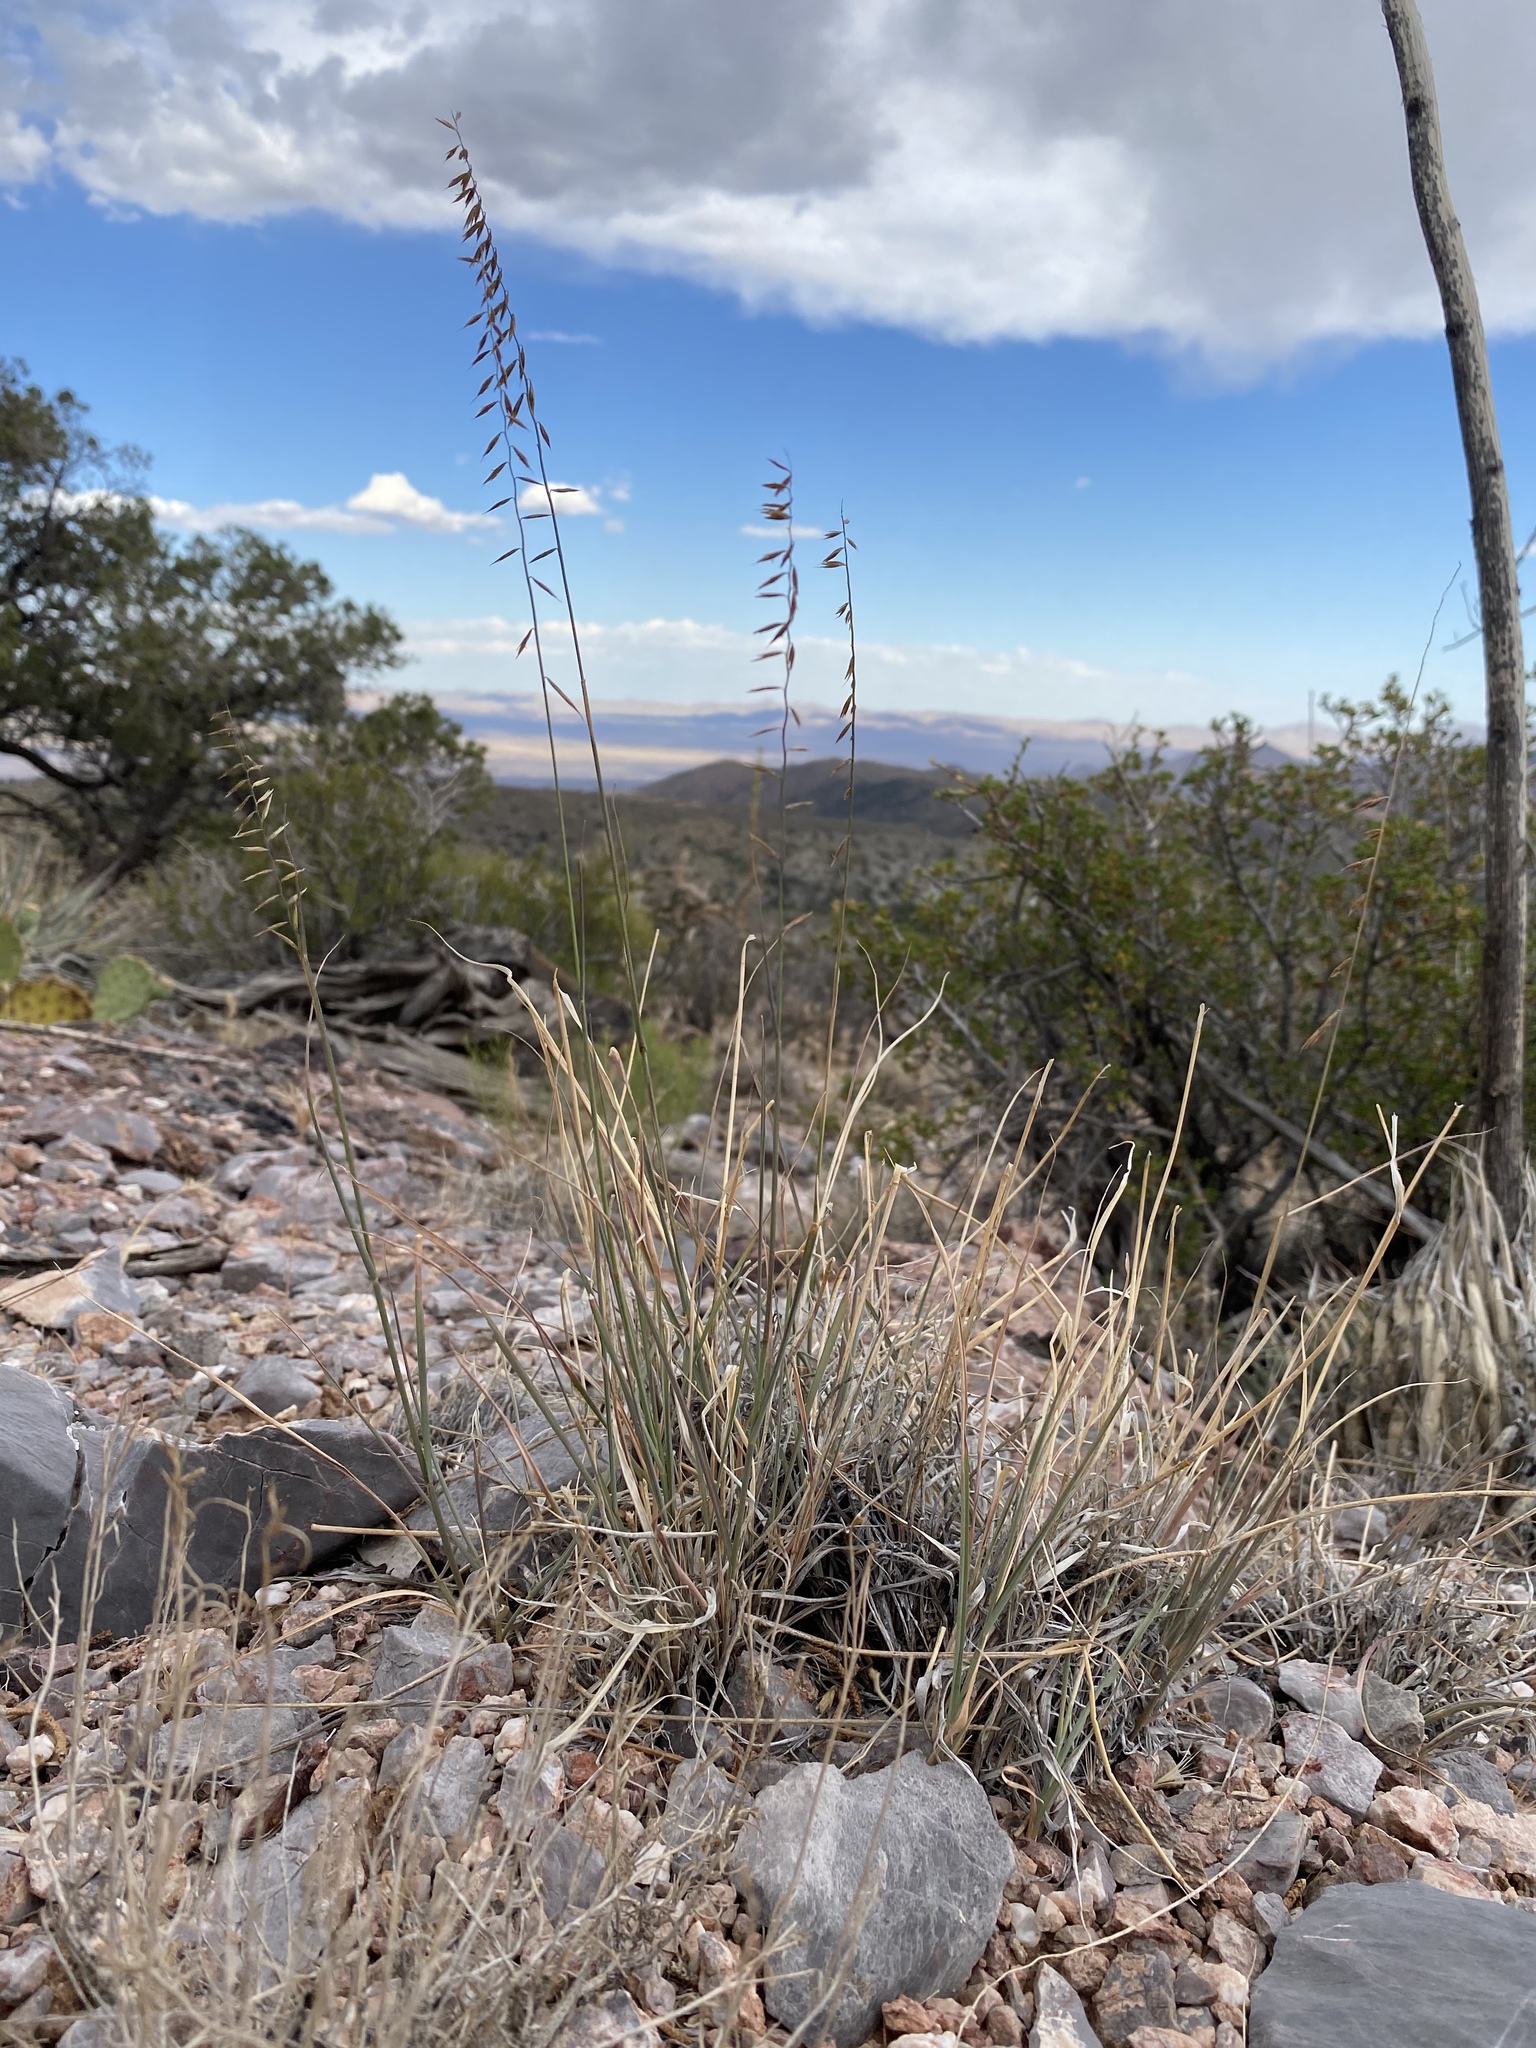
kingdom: Plantae
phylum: Tracheophyta
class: Liliopsida
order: Poales
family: Poaceae
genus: Bouteloua
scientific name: Bouteloua curtipendula
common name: Side-oats grama
